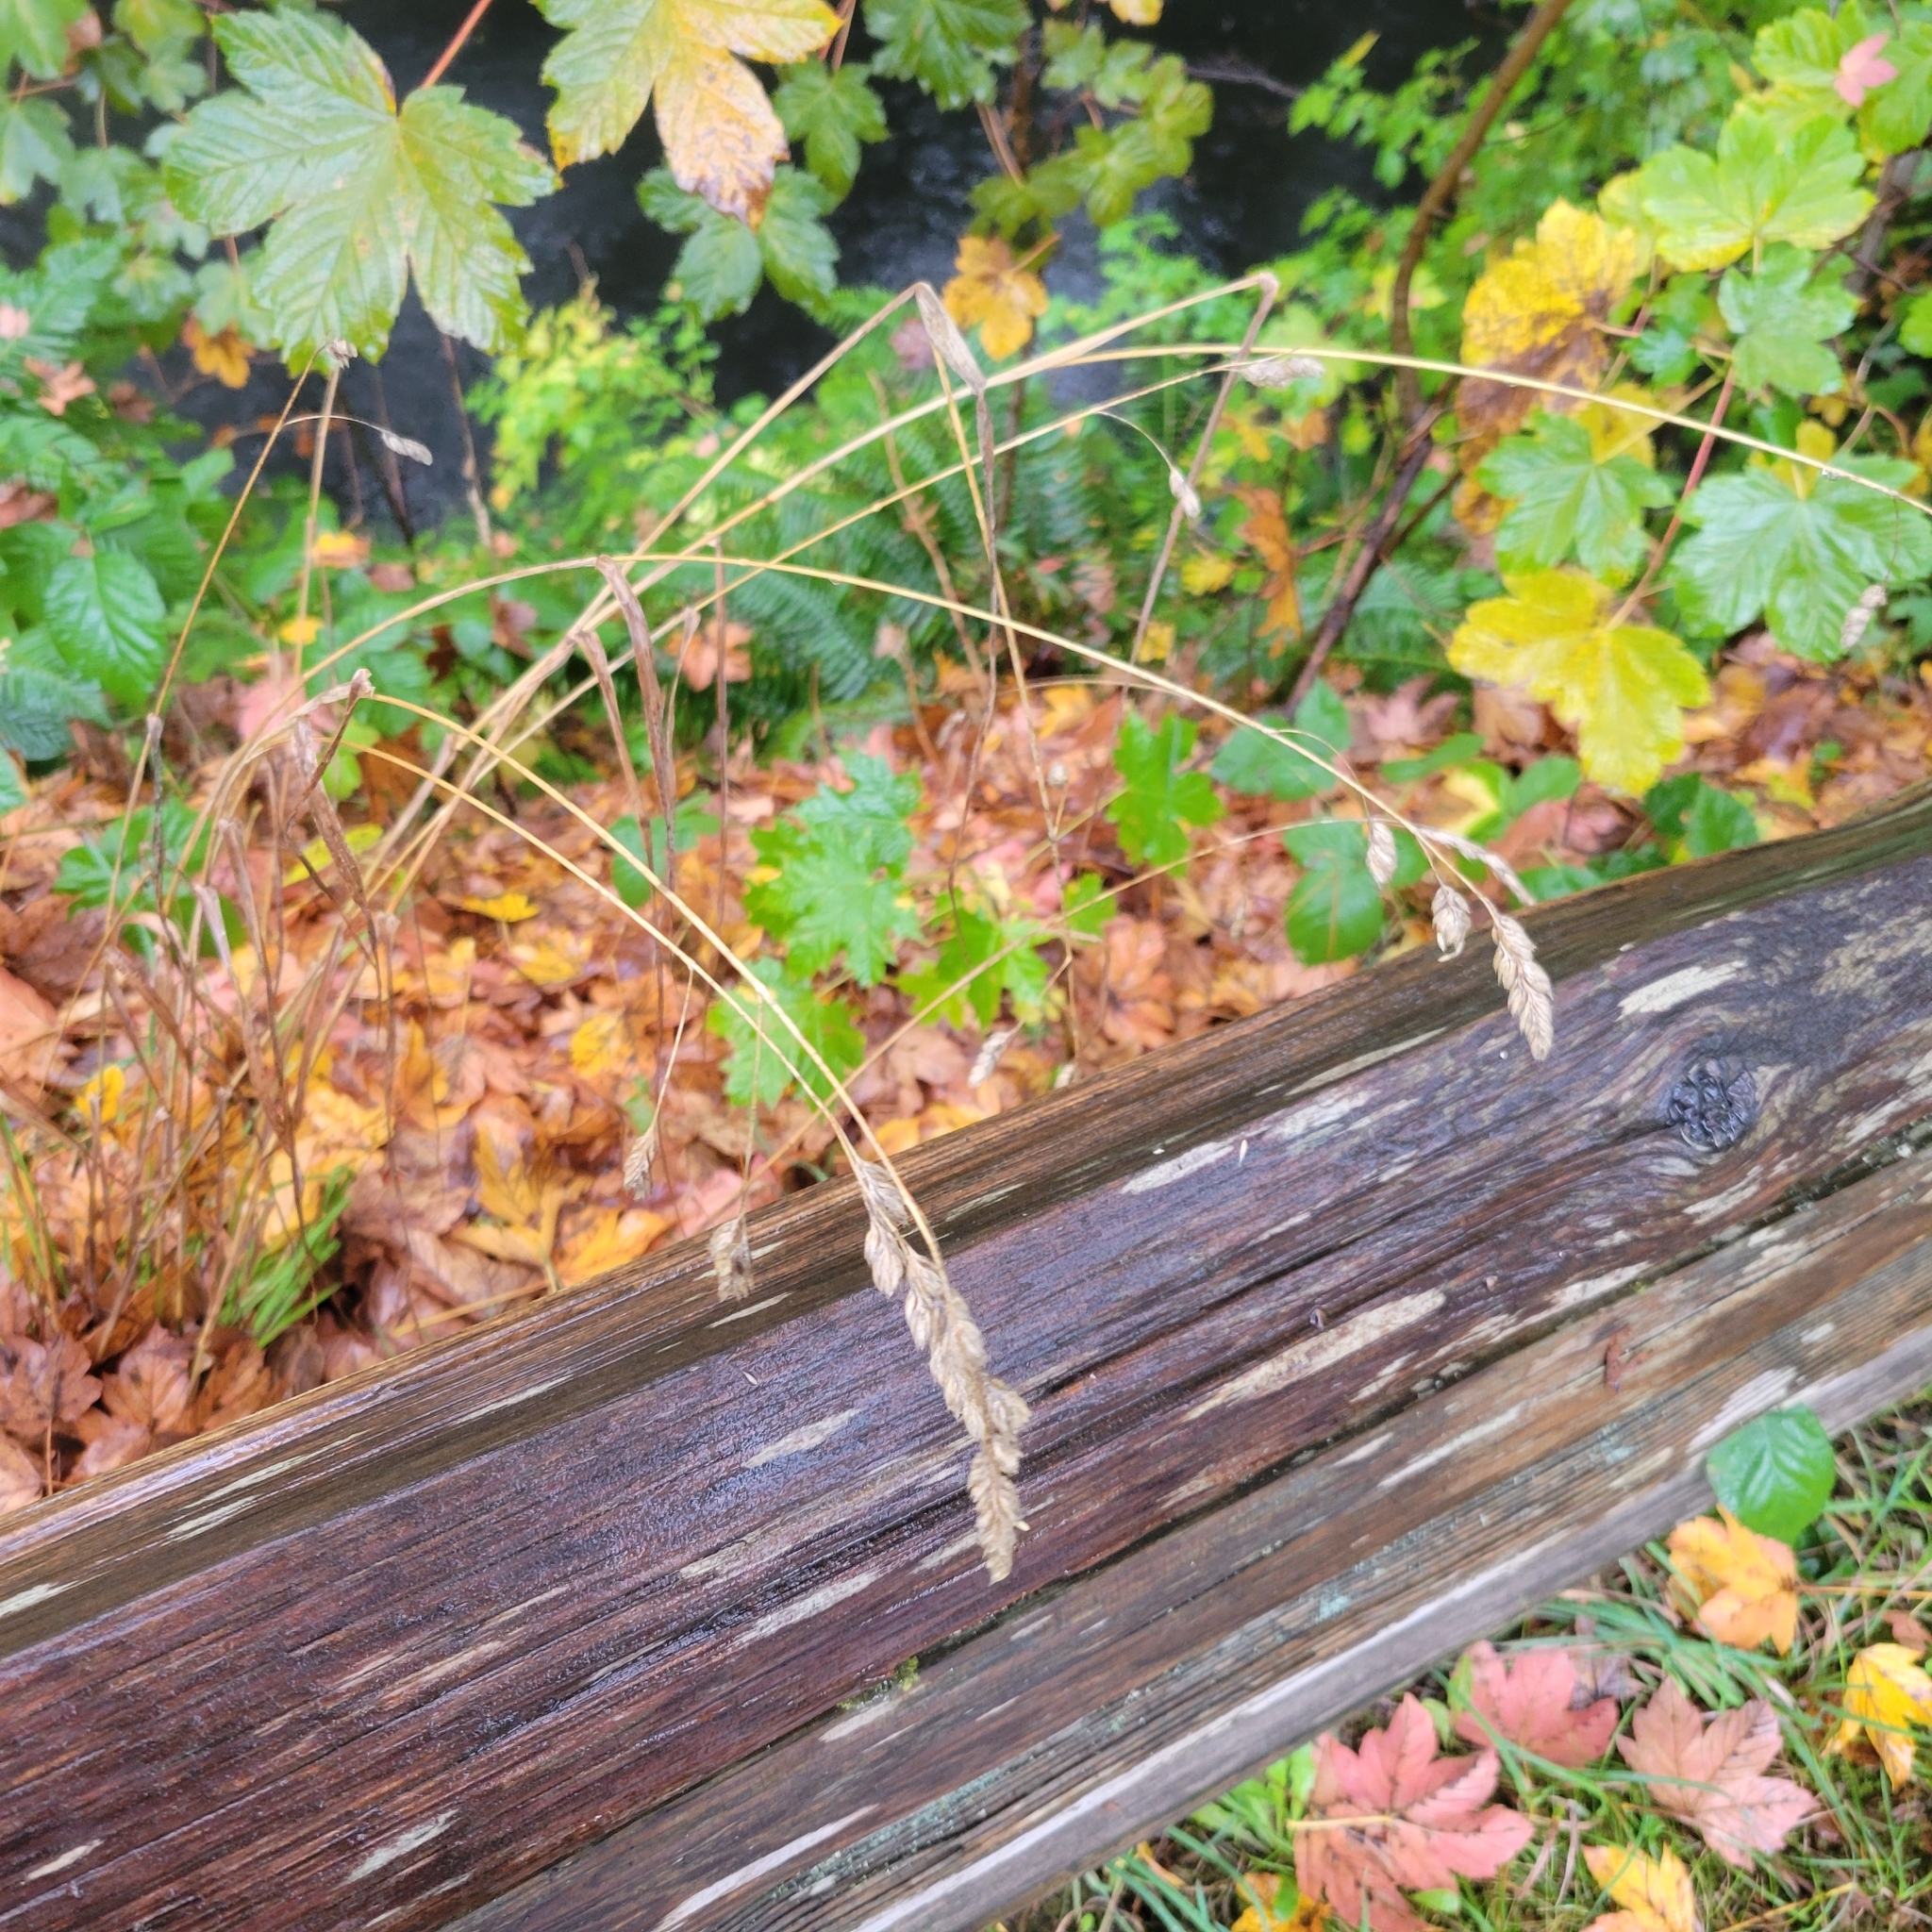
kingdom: Plantae
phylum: Tracheophyta
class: Liliopsida
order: Poales
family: Poaceae
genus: Dactylis
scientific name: Dactylis glomerata
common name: Orchardgrass
